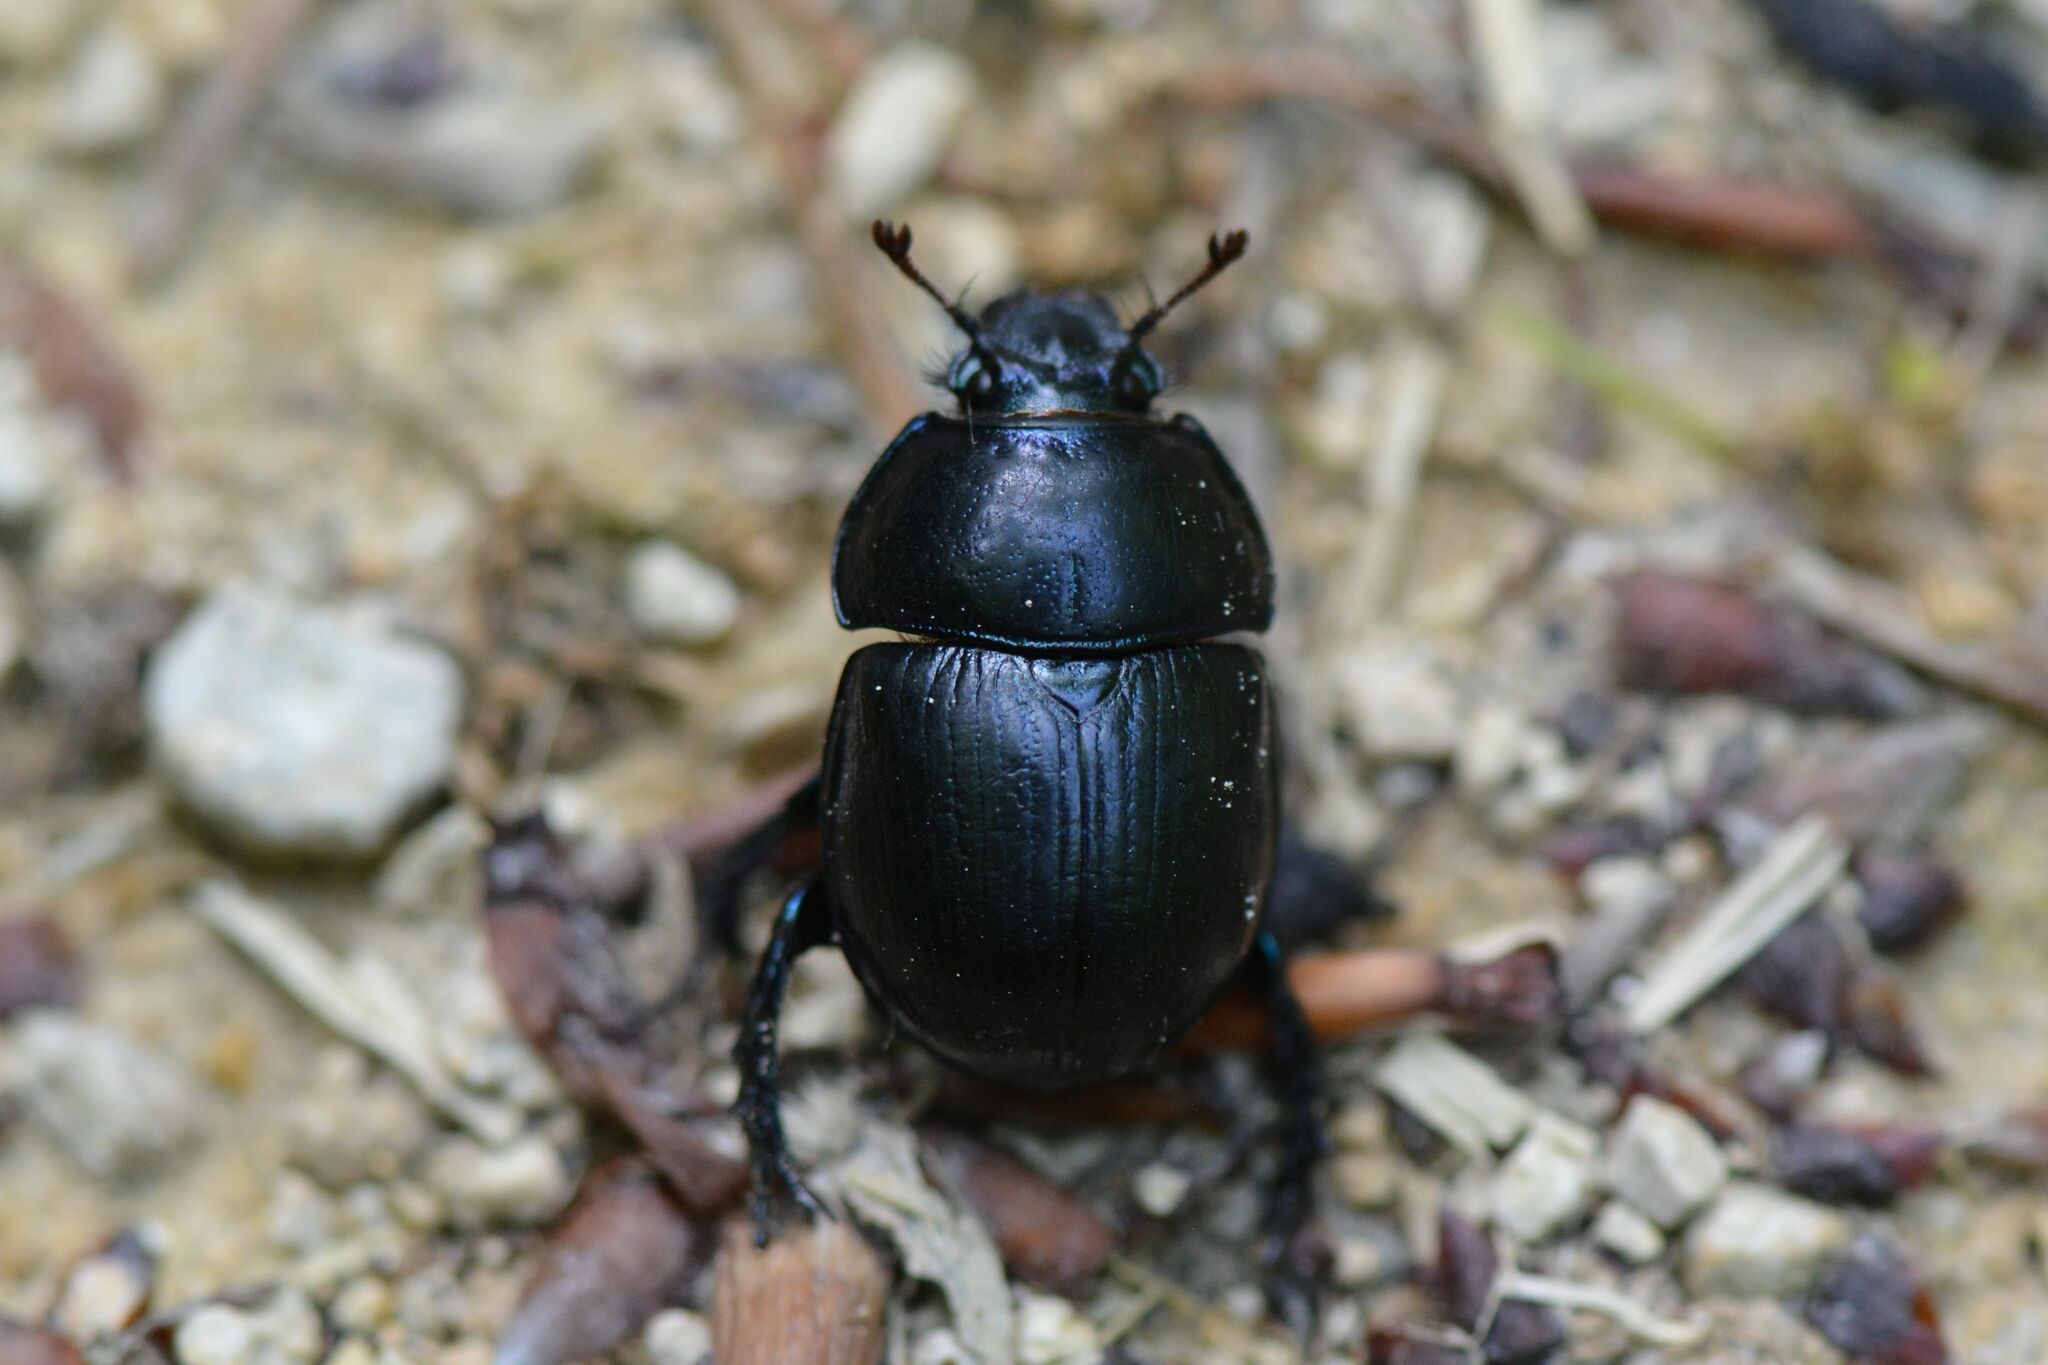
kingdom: Animalia
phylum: Arthropoda
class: Insecta
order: Coleoptera
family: Geotrupidae
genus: Anoplotrupes
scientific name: Anoplotrupes stercorosus
